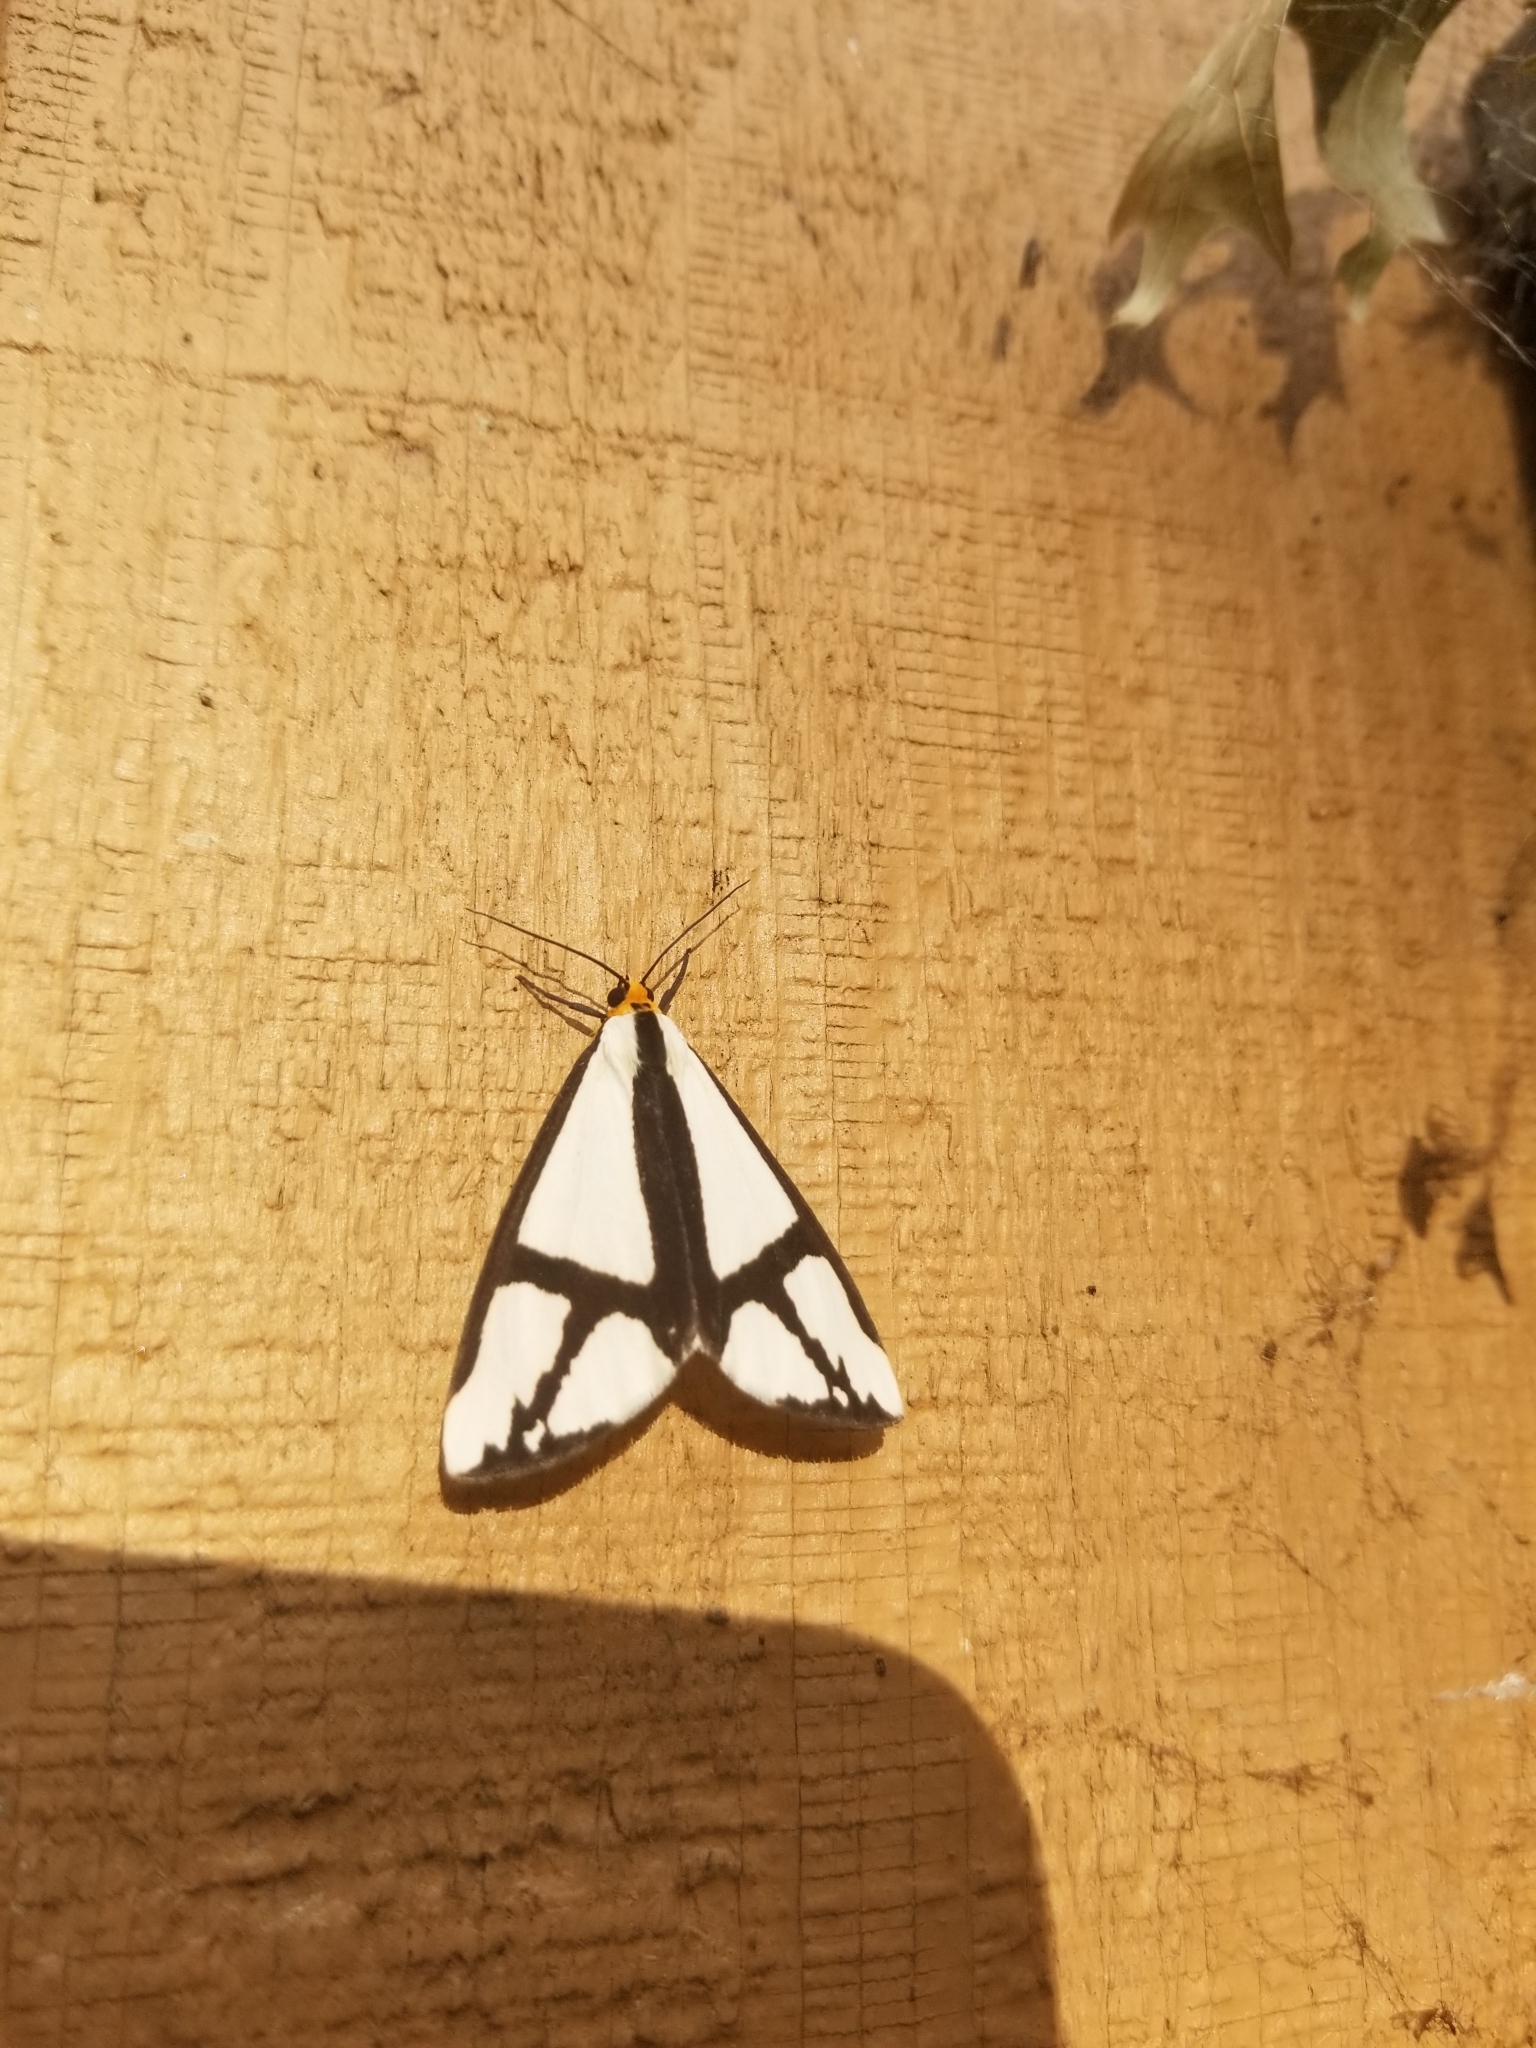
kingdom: Animalia
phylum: Arthropoda
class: Insecta
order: Lepidoptera
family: Erebidae
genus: Haploa
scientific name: Haploa contigua
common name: Neighbor moth
